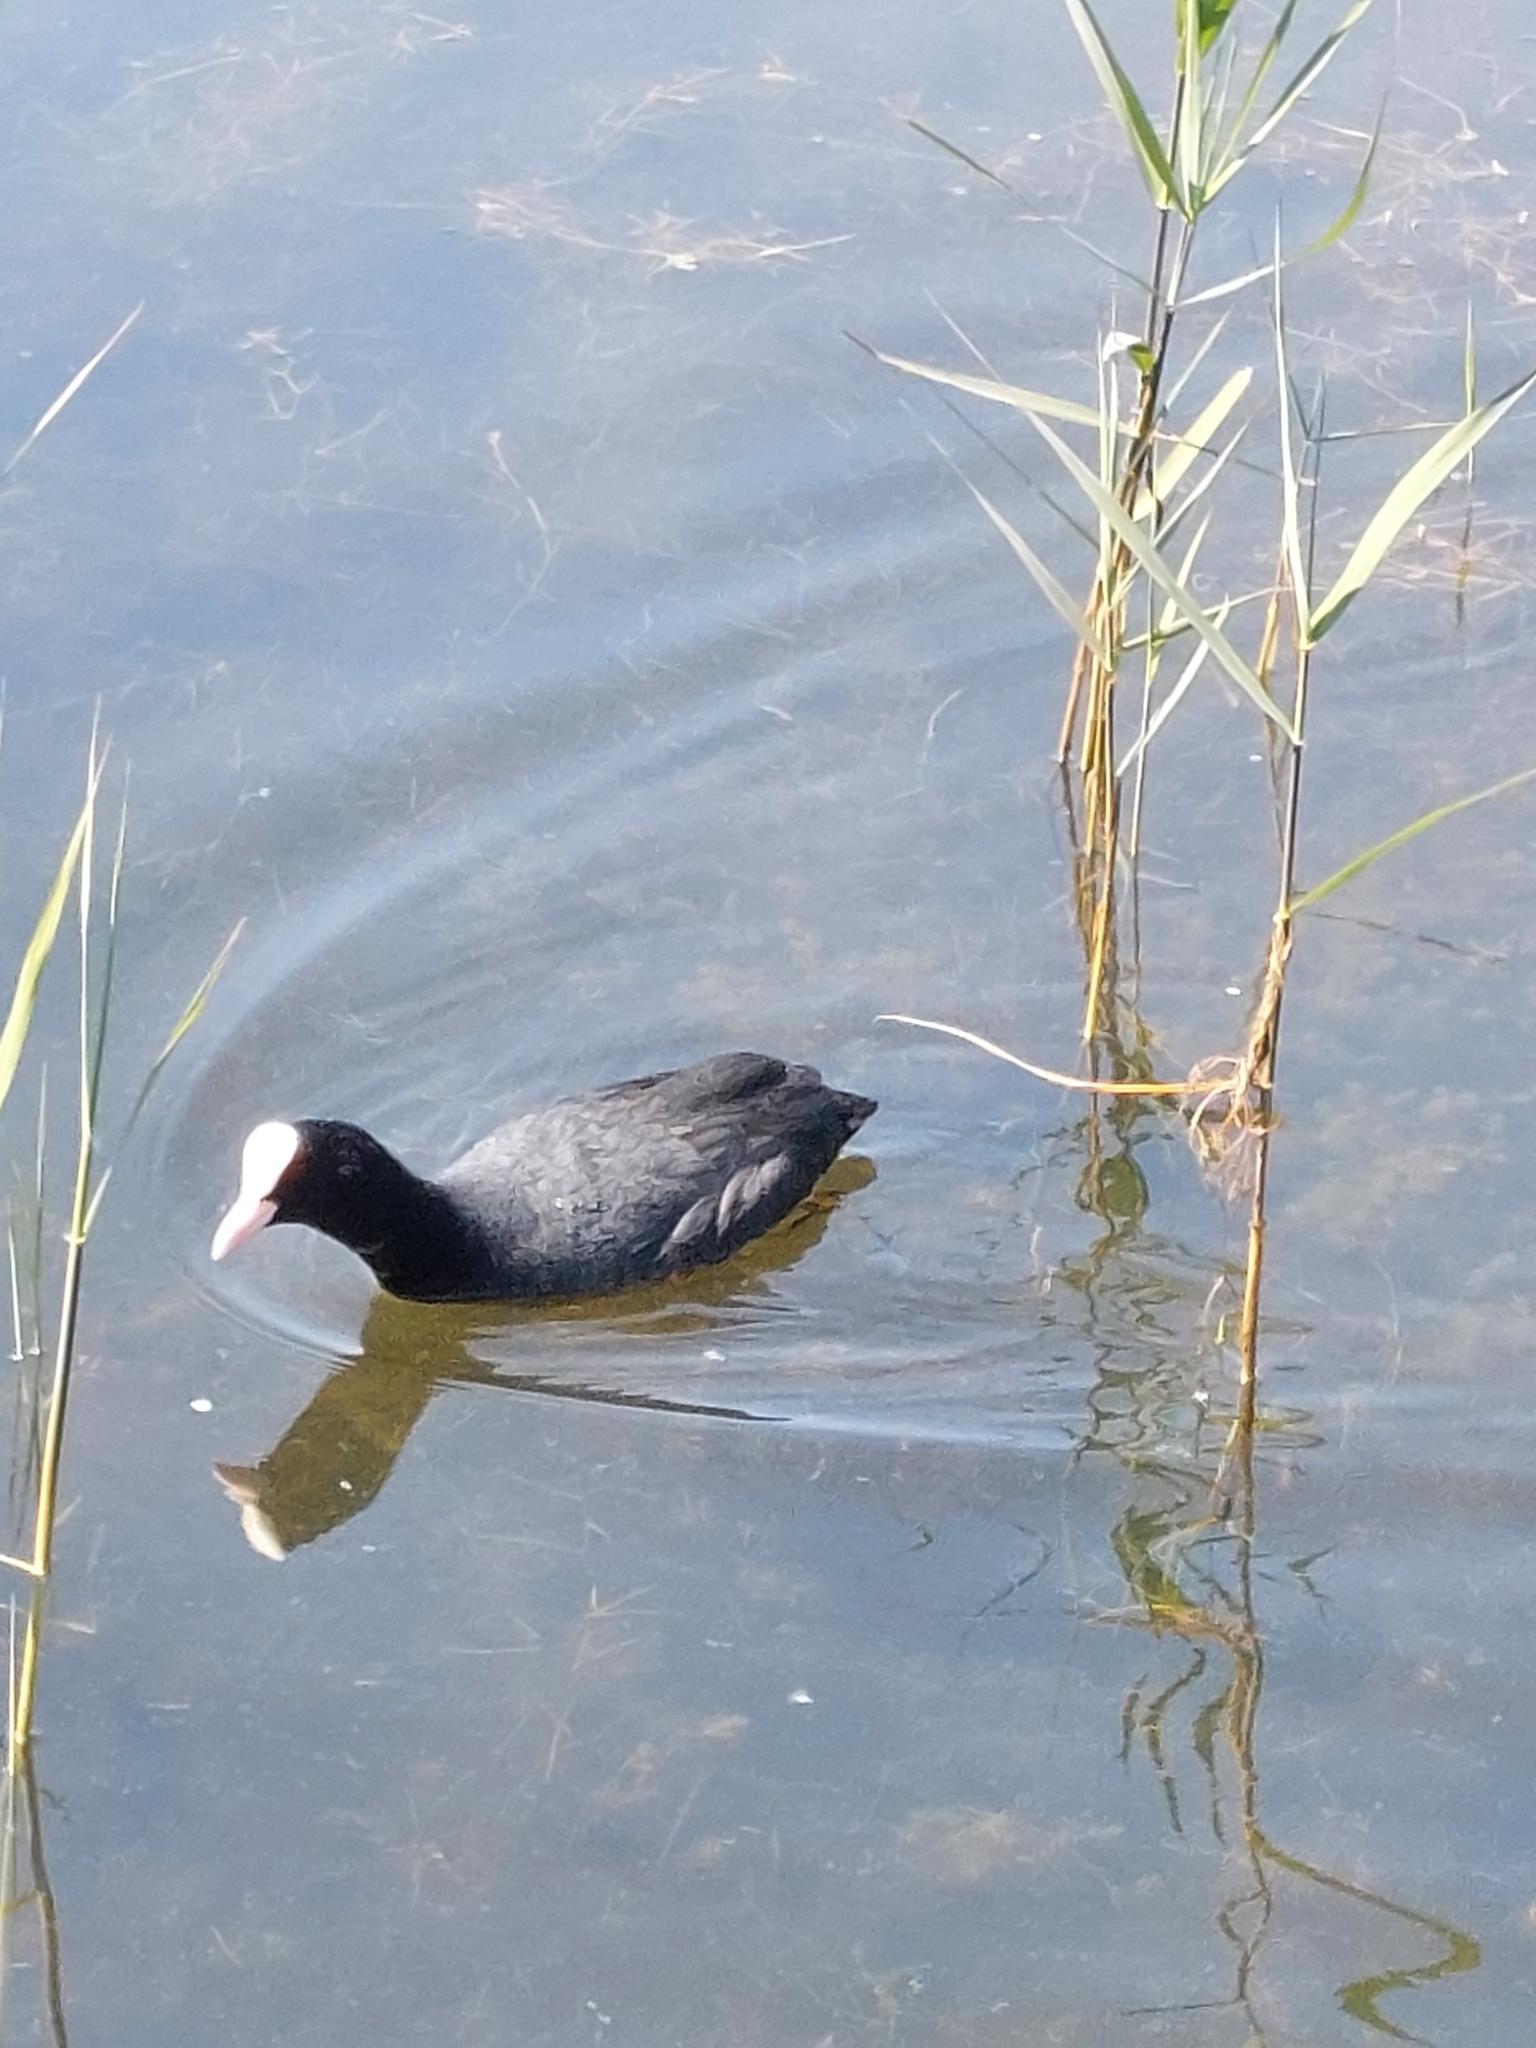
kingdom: Animalia
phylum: Chordata
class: Aves
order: Gruiformes
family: Rallidae
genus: Fulica
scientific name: Fulica atra
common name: Eurasian coot
